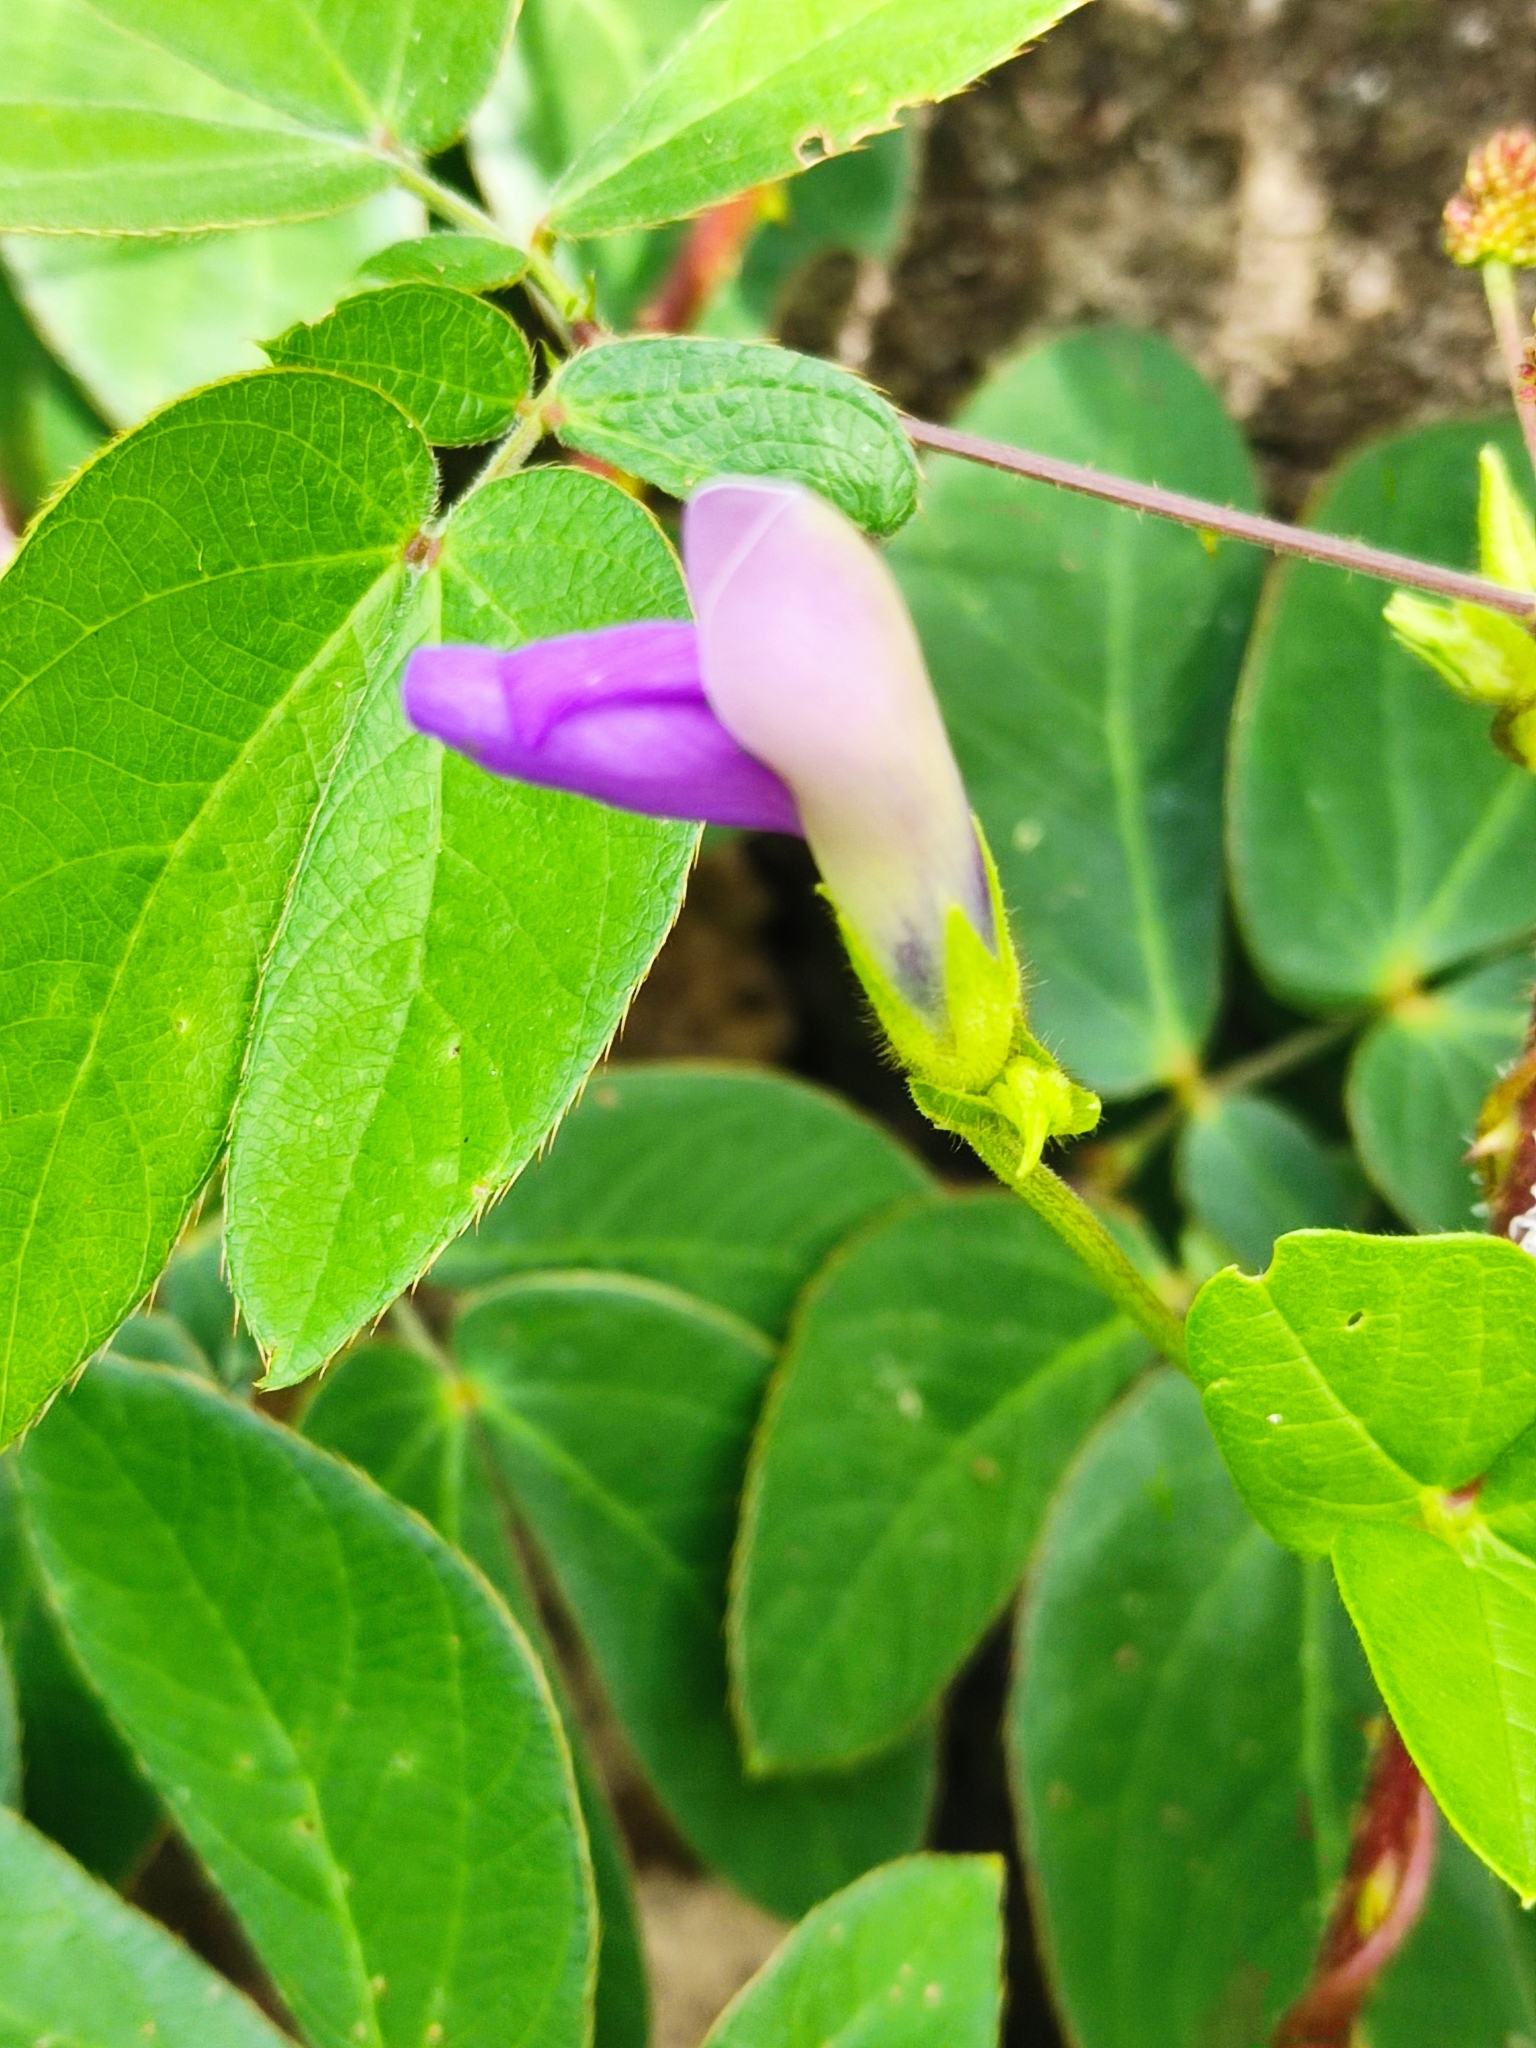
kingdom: Plantae
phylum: Tracheophyta
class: Magnoliopsida
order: Fabales
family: Fabaceae
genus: Phaseolus
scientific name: Phaseolus pauciflorus
